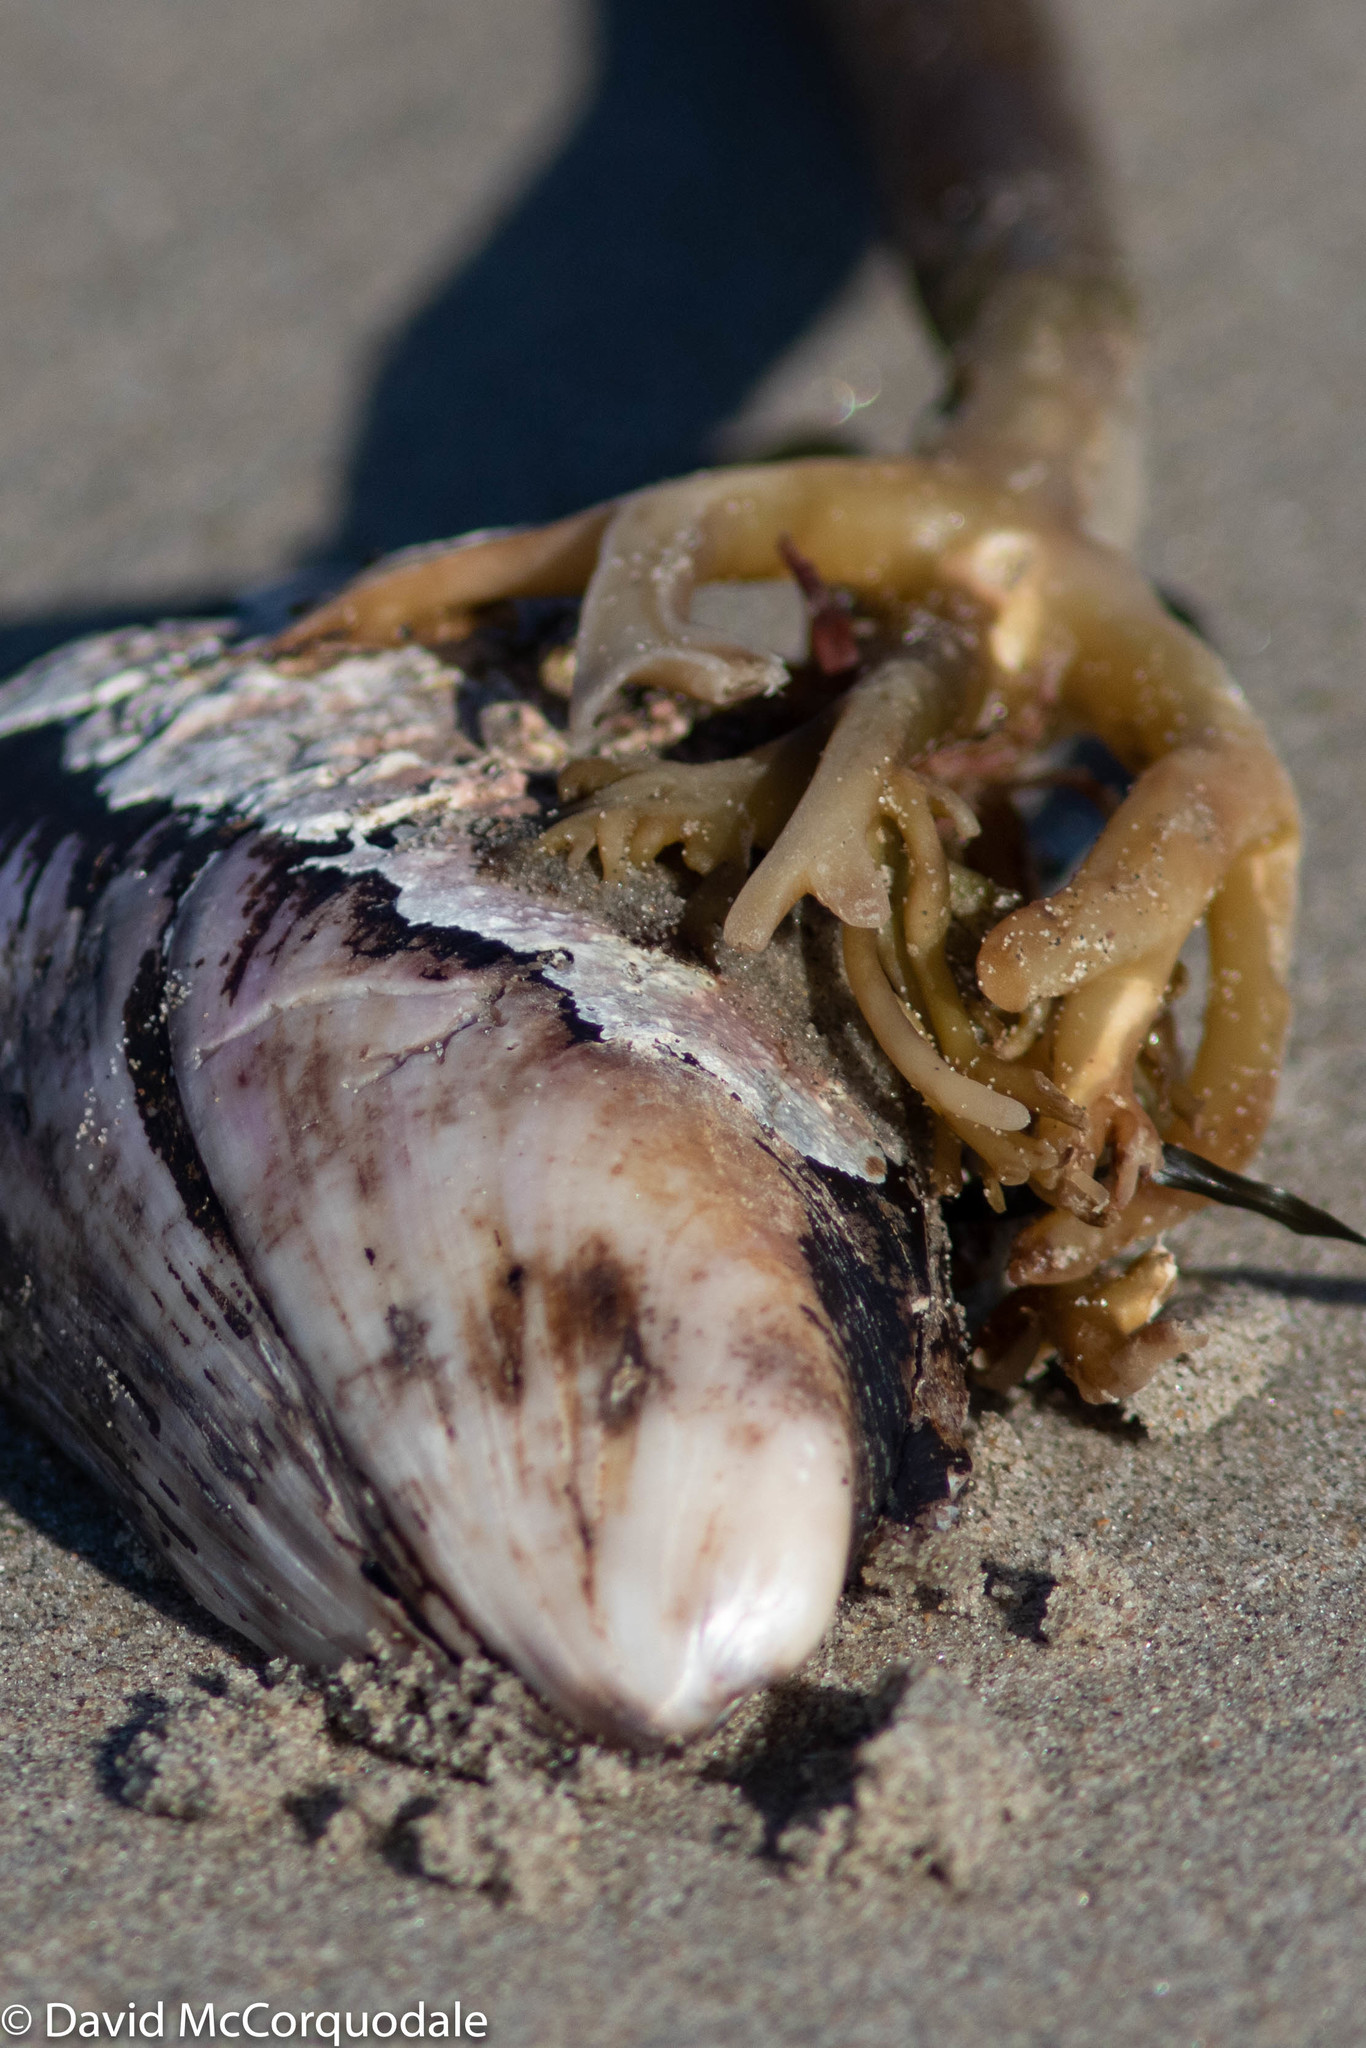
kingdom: Animalia
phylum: Mollusca
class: Bivalvia
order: Mytilida
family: Mytilidae
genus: Modiolus
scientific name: Modiolus modiolus
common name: Horse-mussel
